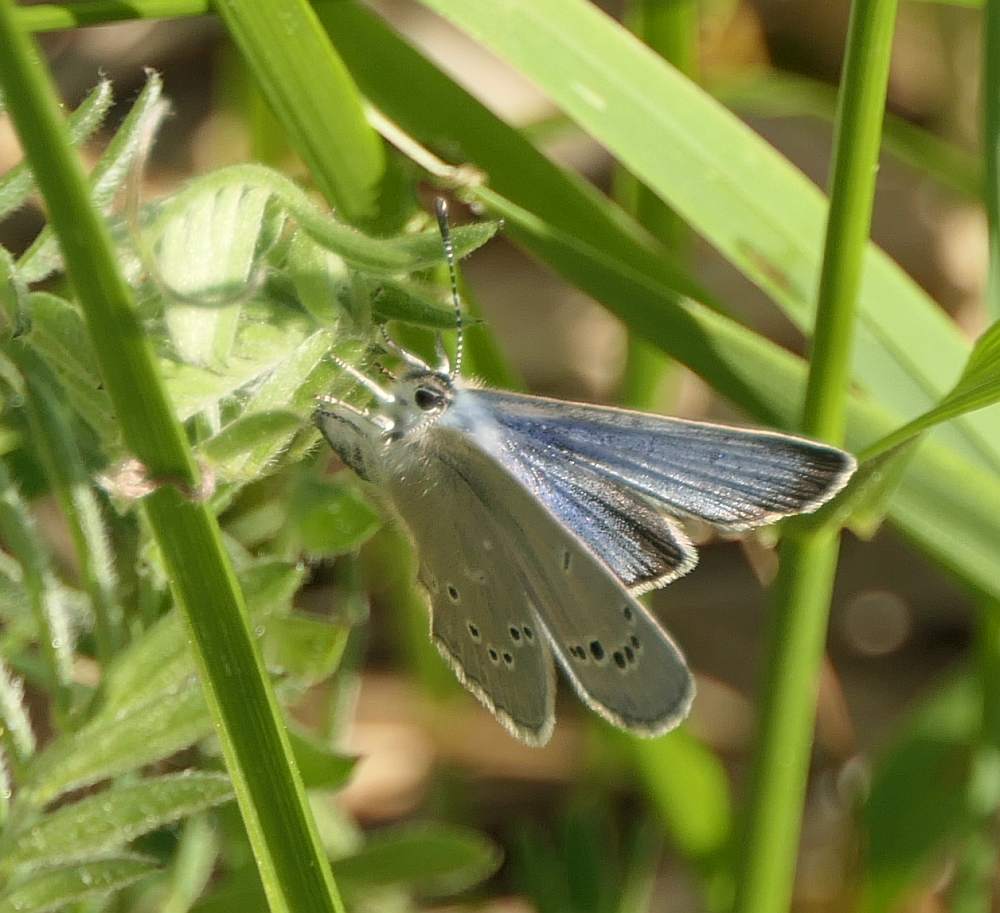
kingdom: Animalia
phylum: Arthropoda
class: Insecta
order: Lepidoptera
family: Lycaenidae
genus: Glaucopsyche
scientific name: Glaucopsyche lygdamus
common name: Silvery blue
